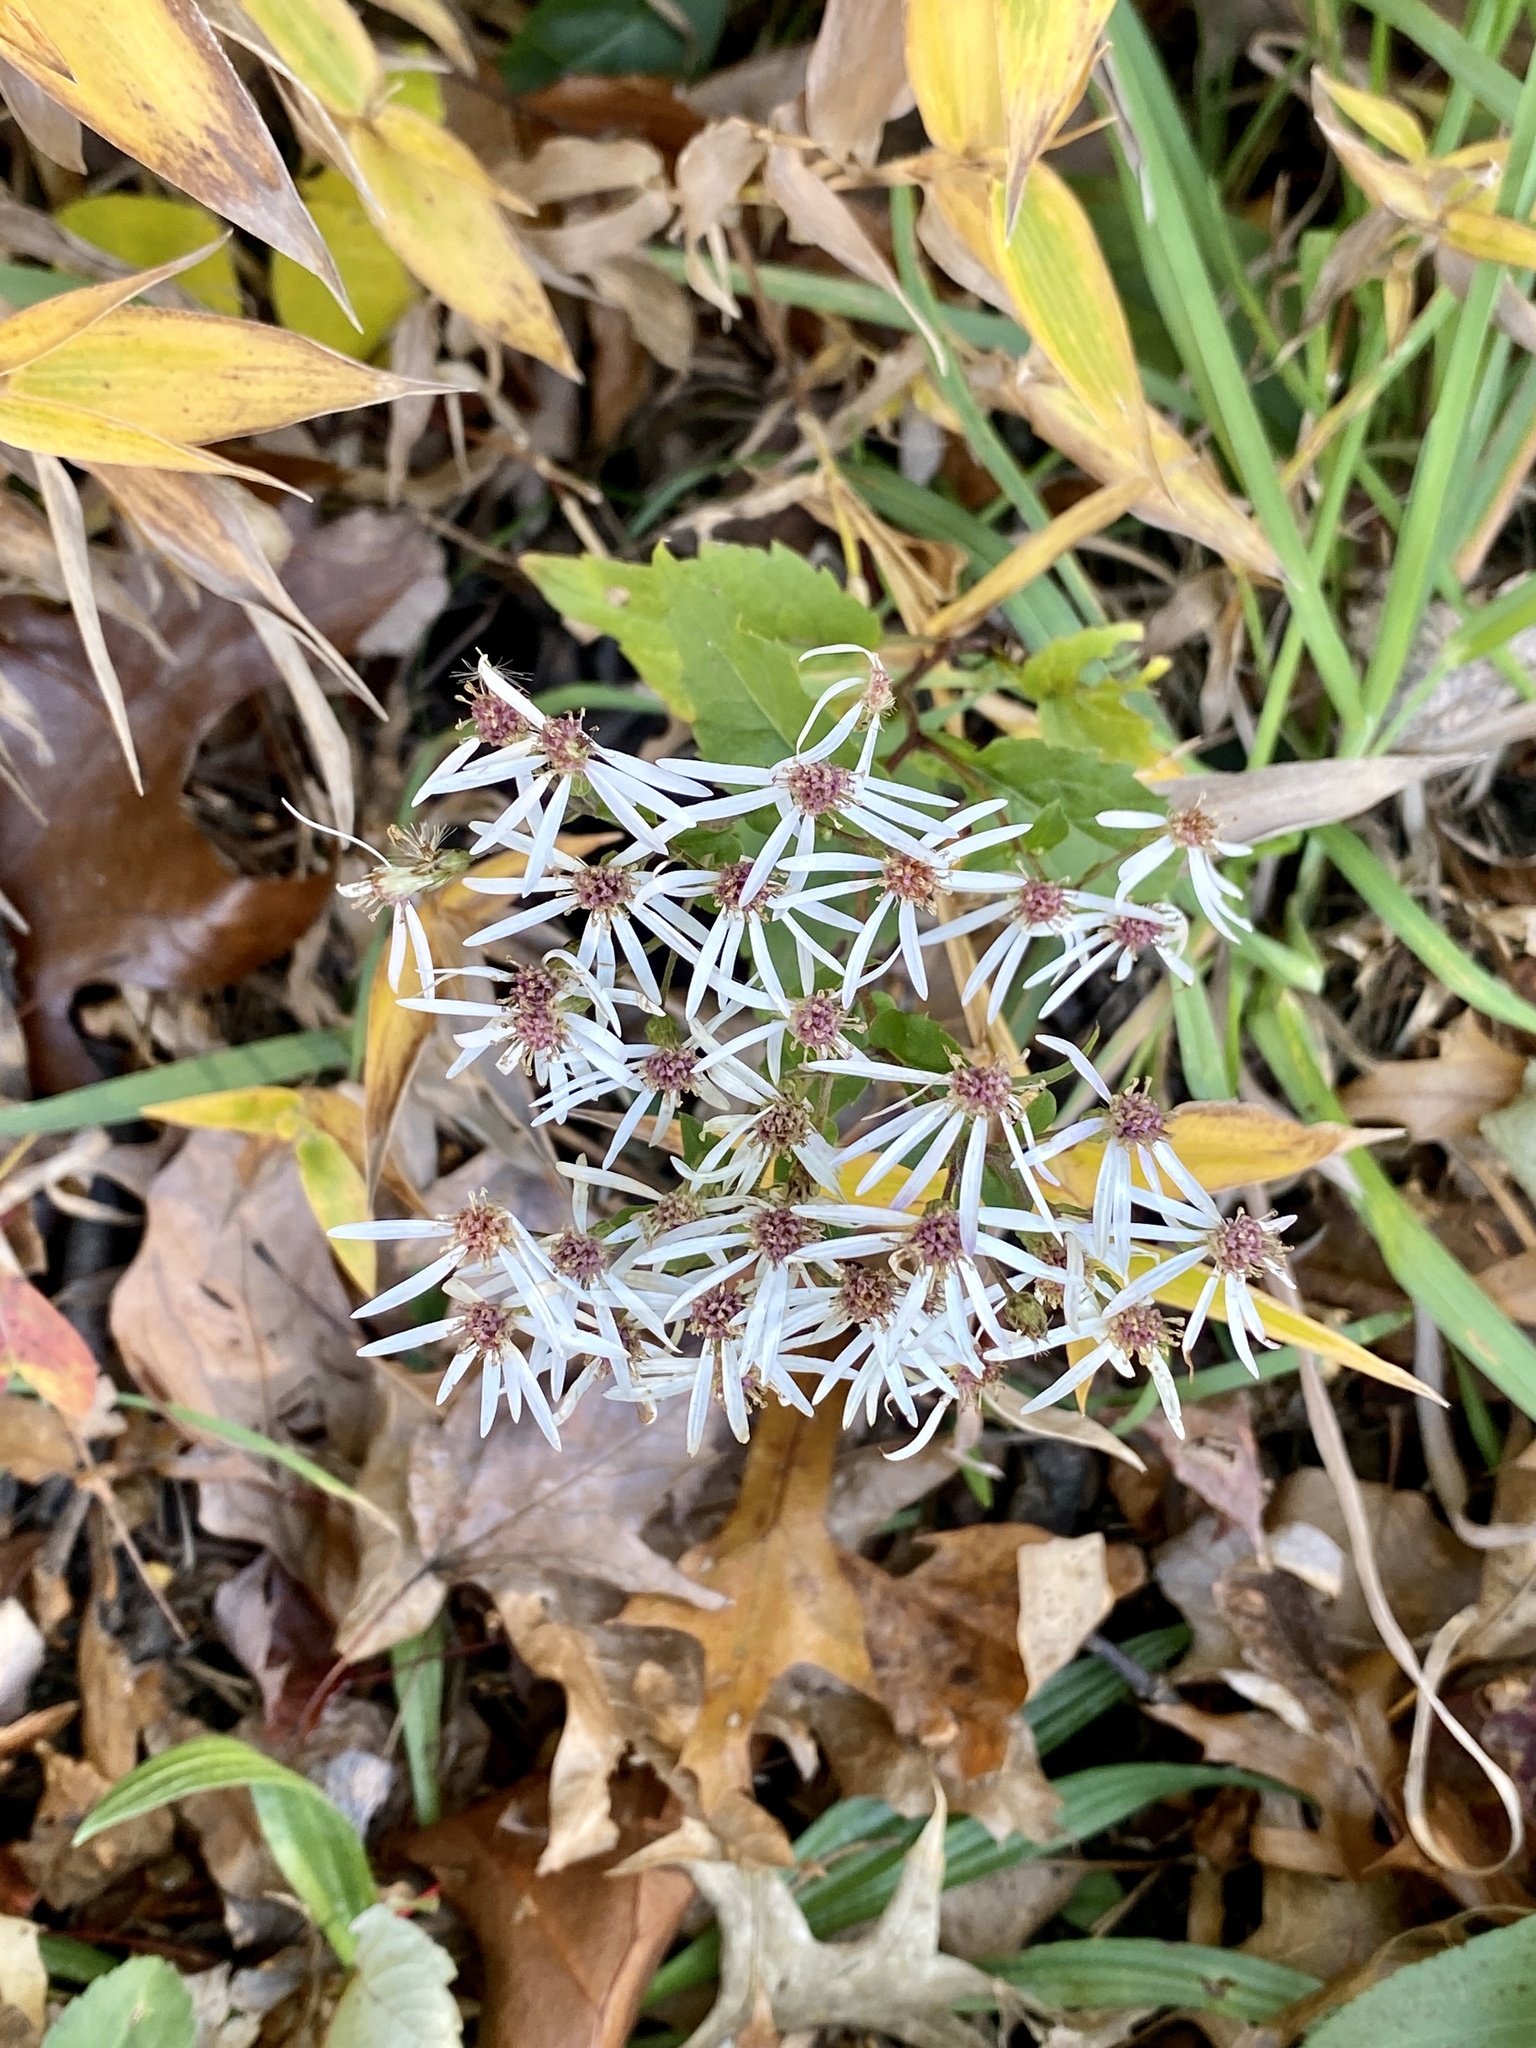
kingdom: Plantae
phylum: Tracheophyta
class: Magnoliopsida
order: Asterales
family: Asteraceae
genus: Eurybia
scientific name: Eurybia divaricata
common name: White wood aster
